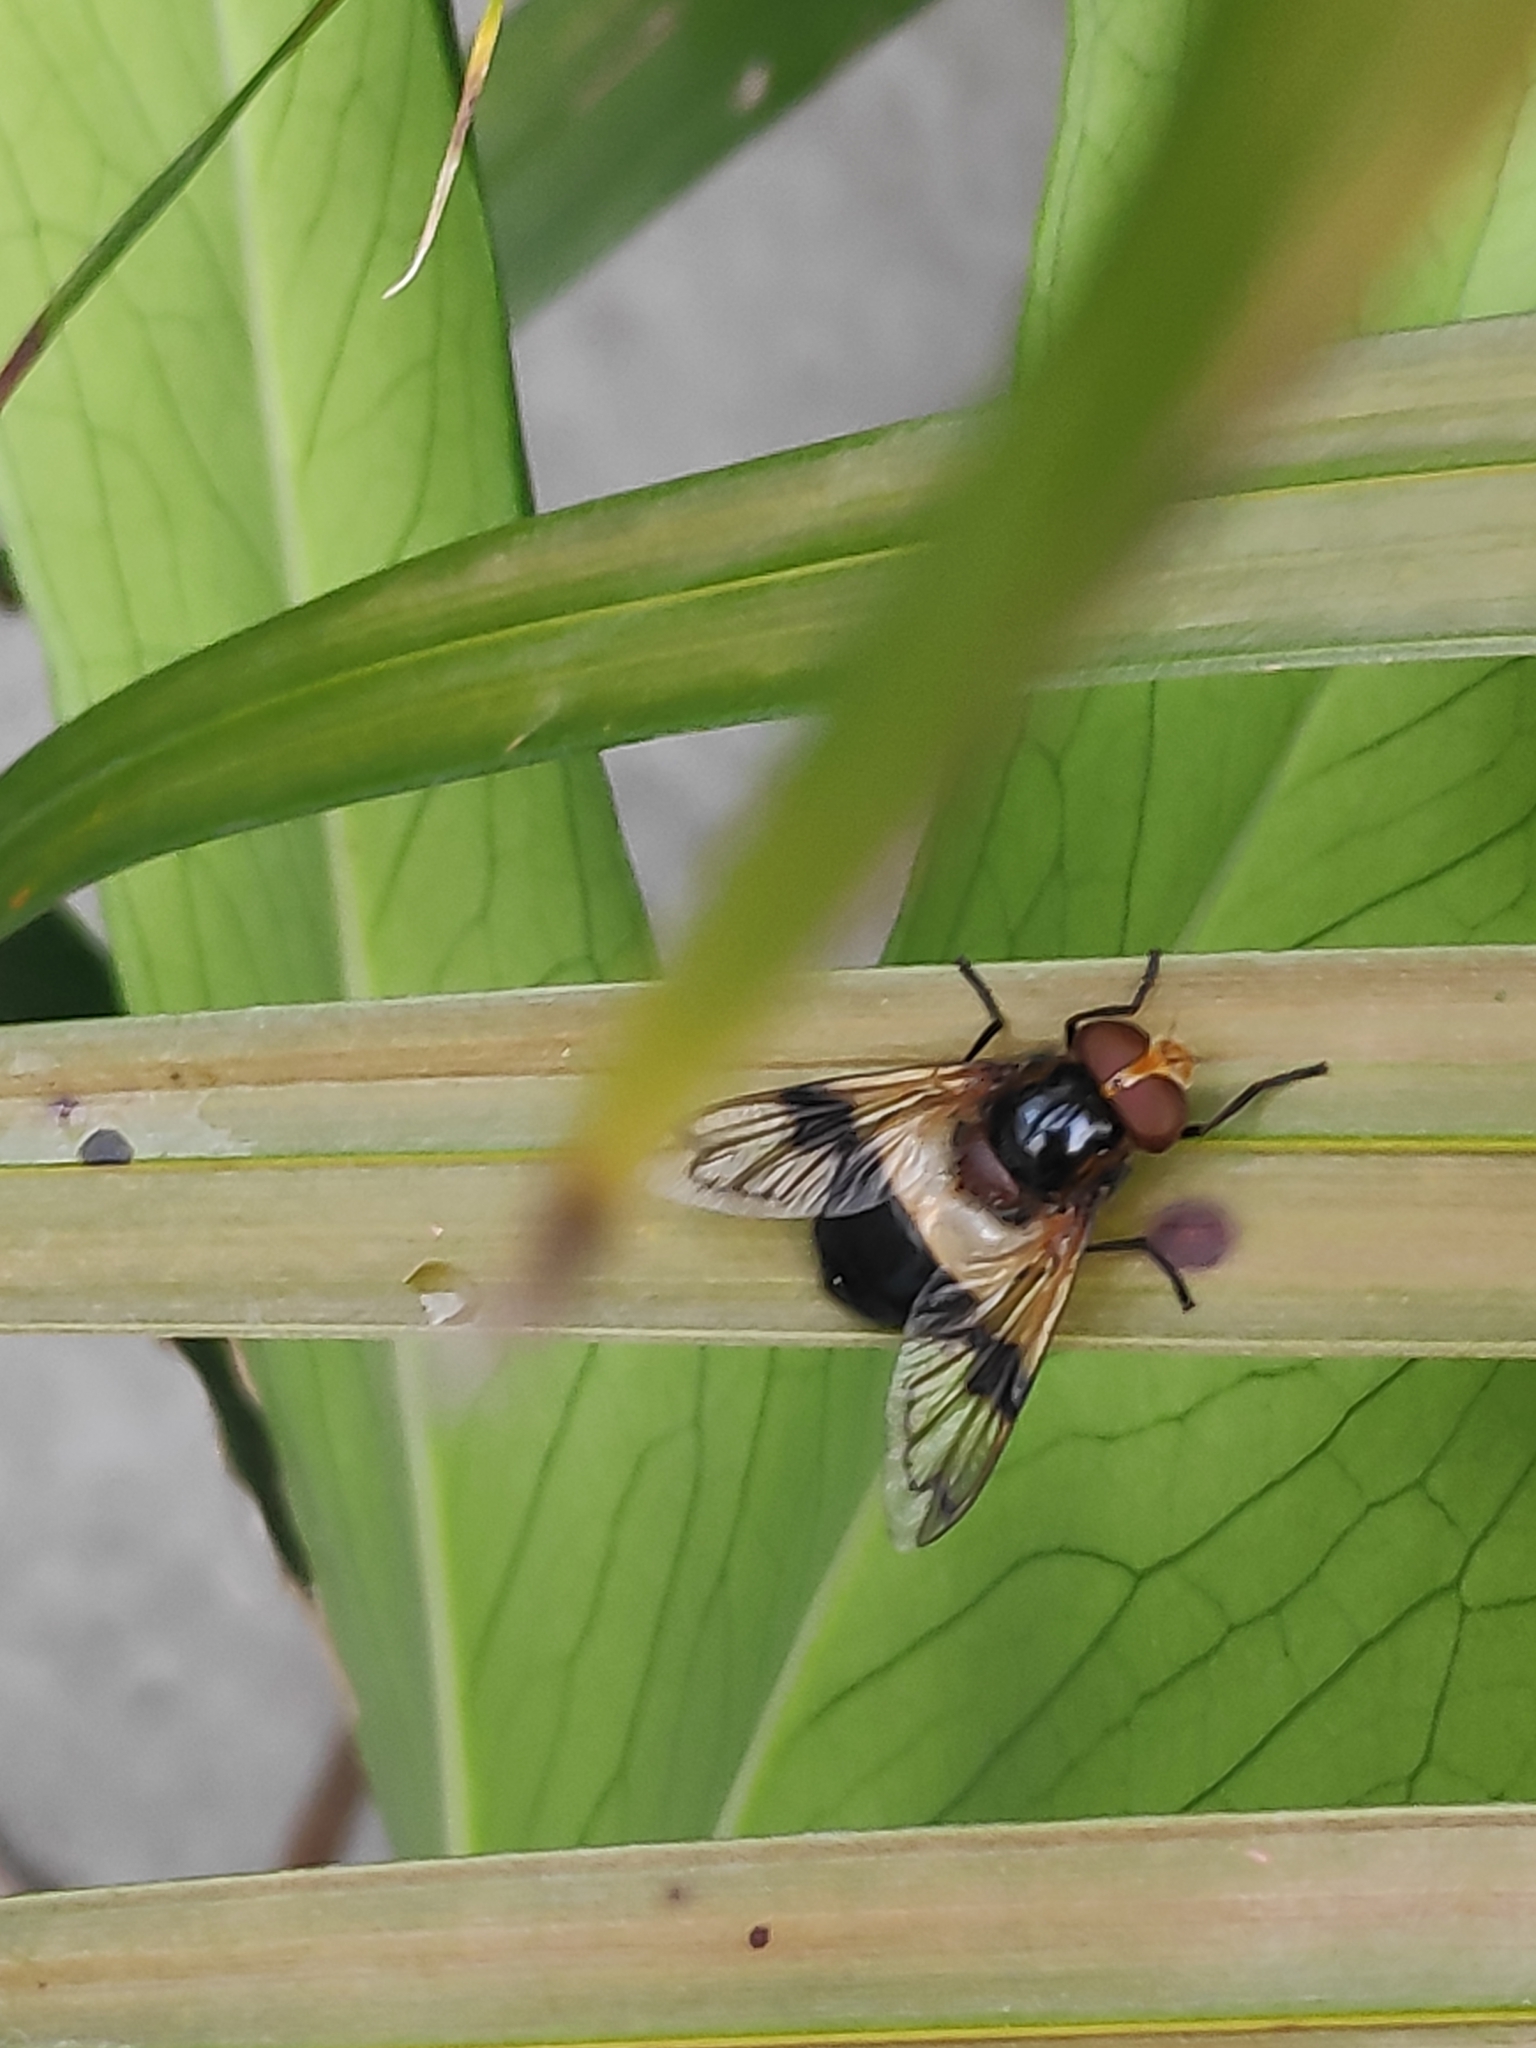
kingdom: Animalia
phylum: Arthropoda
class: Insecta
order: Diptera
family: Syrphidae
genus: Volucella
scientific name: Volucella pellucens
